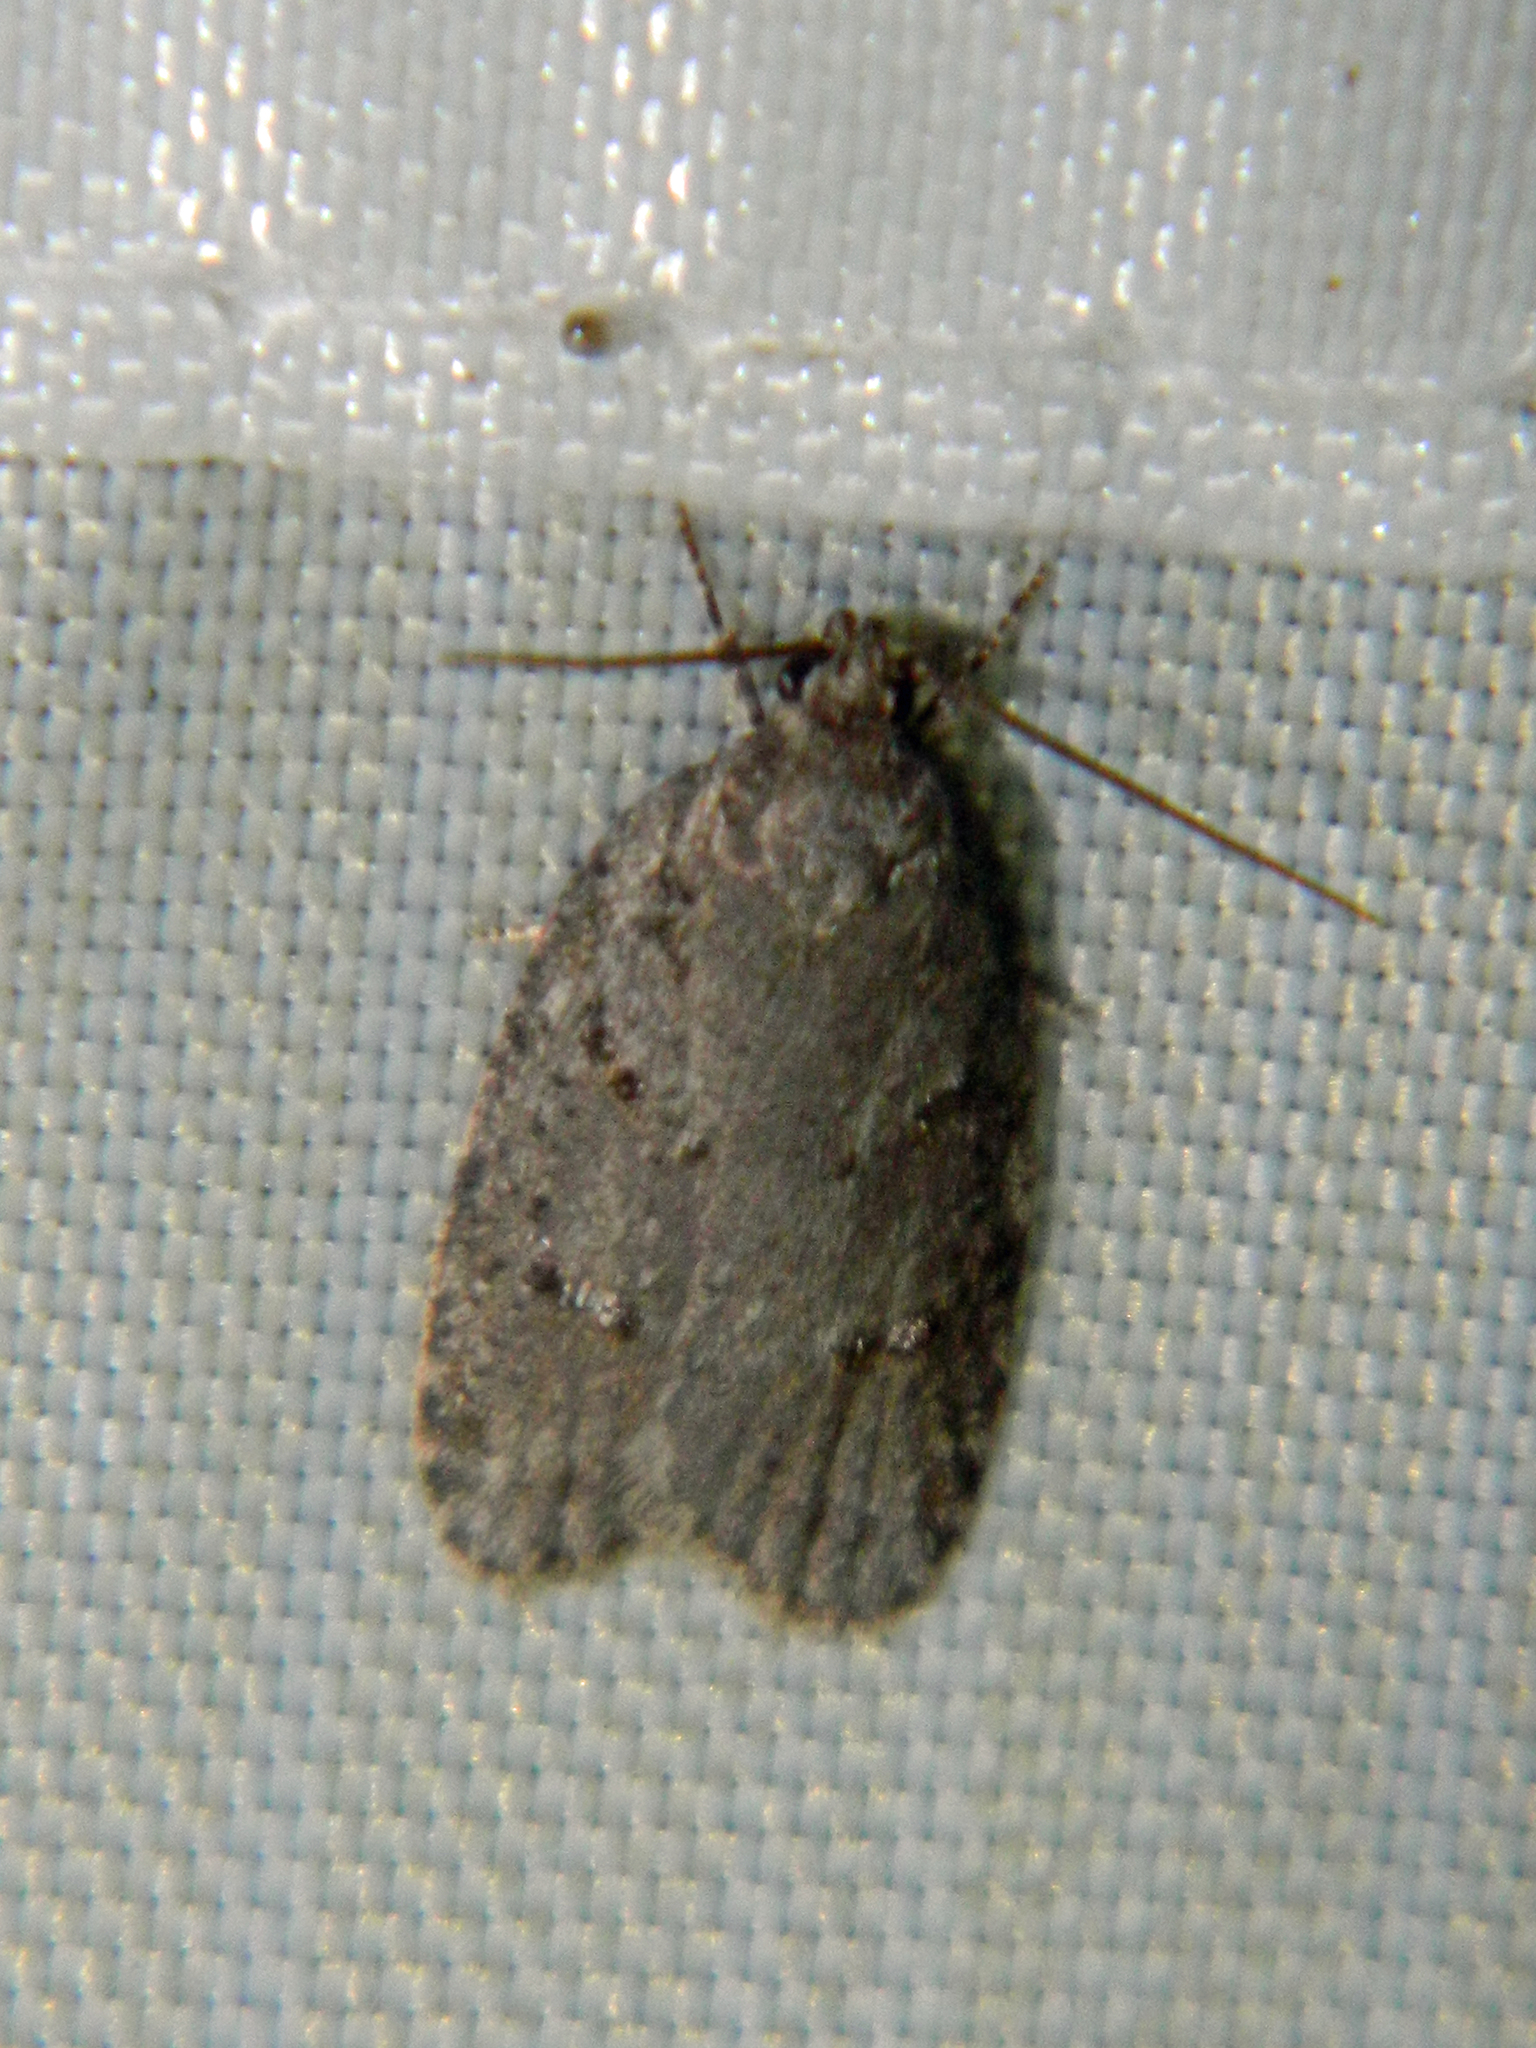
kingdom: Animalia
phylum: Arthropoda
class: Insecta
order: Lepidoptera
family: Depressariidae
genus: Bibarrambla
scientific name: Bibarrambla allenella
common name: Bog bibarrambla moth
